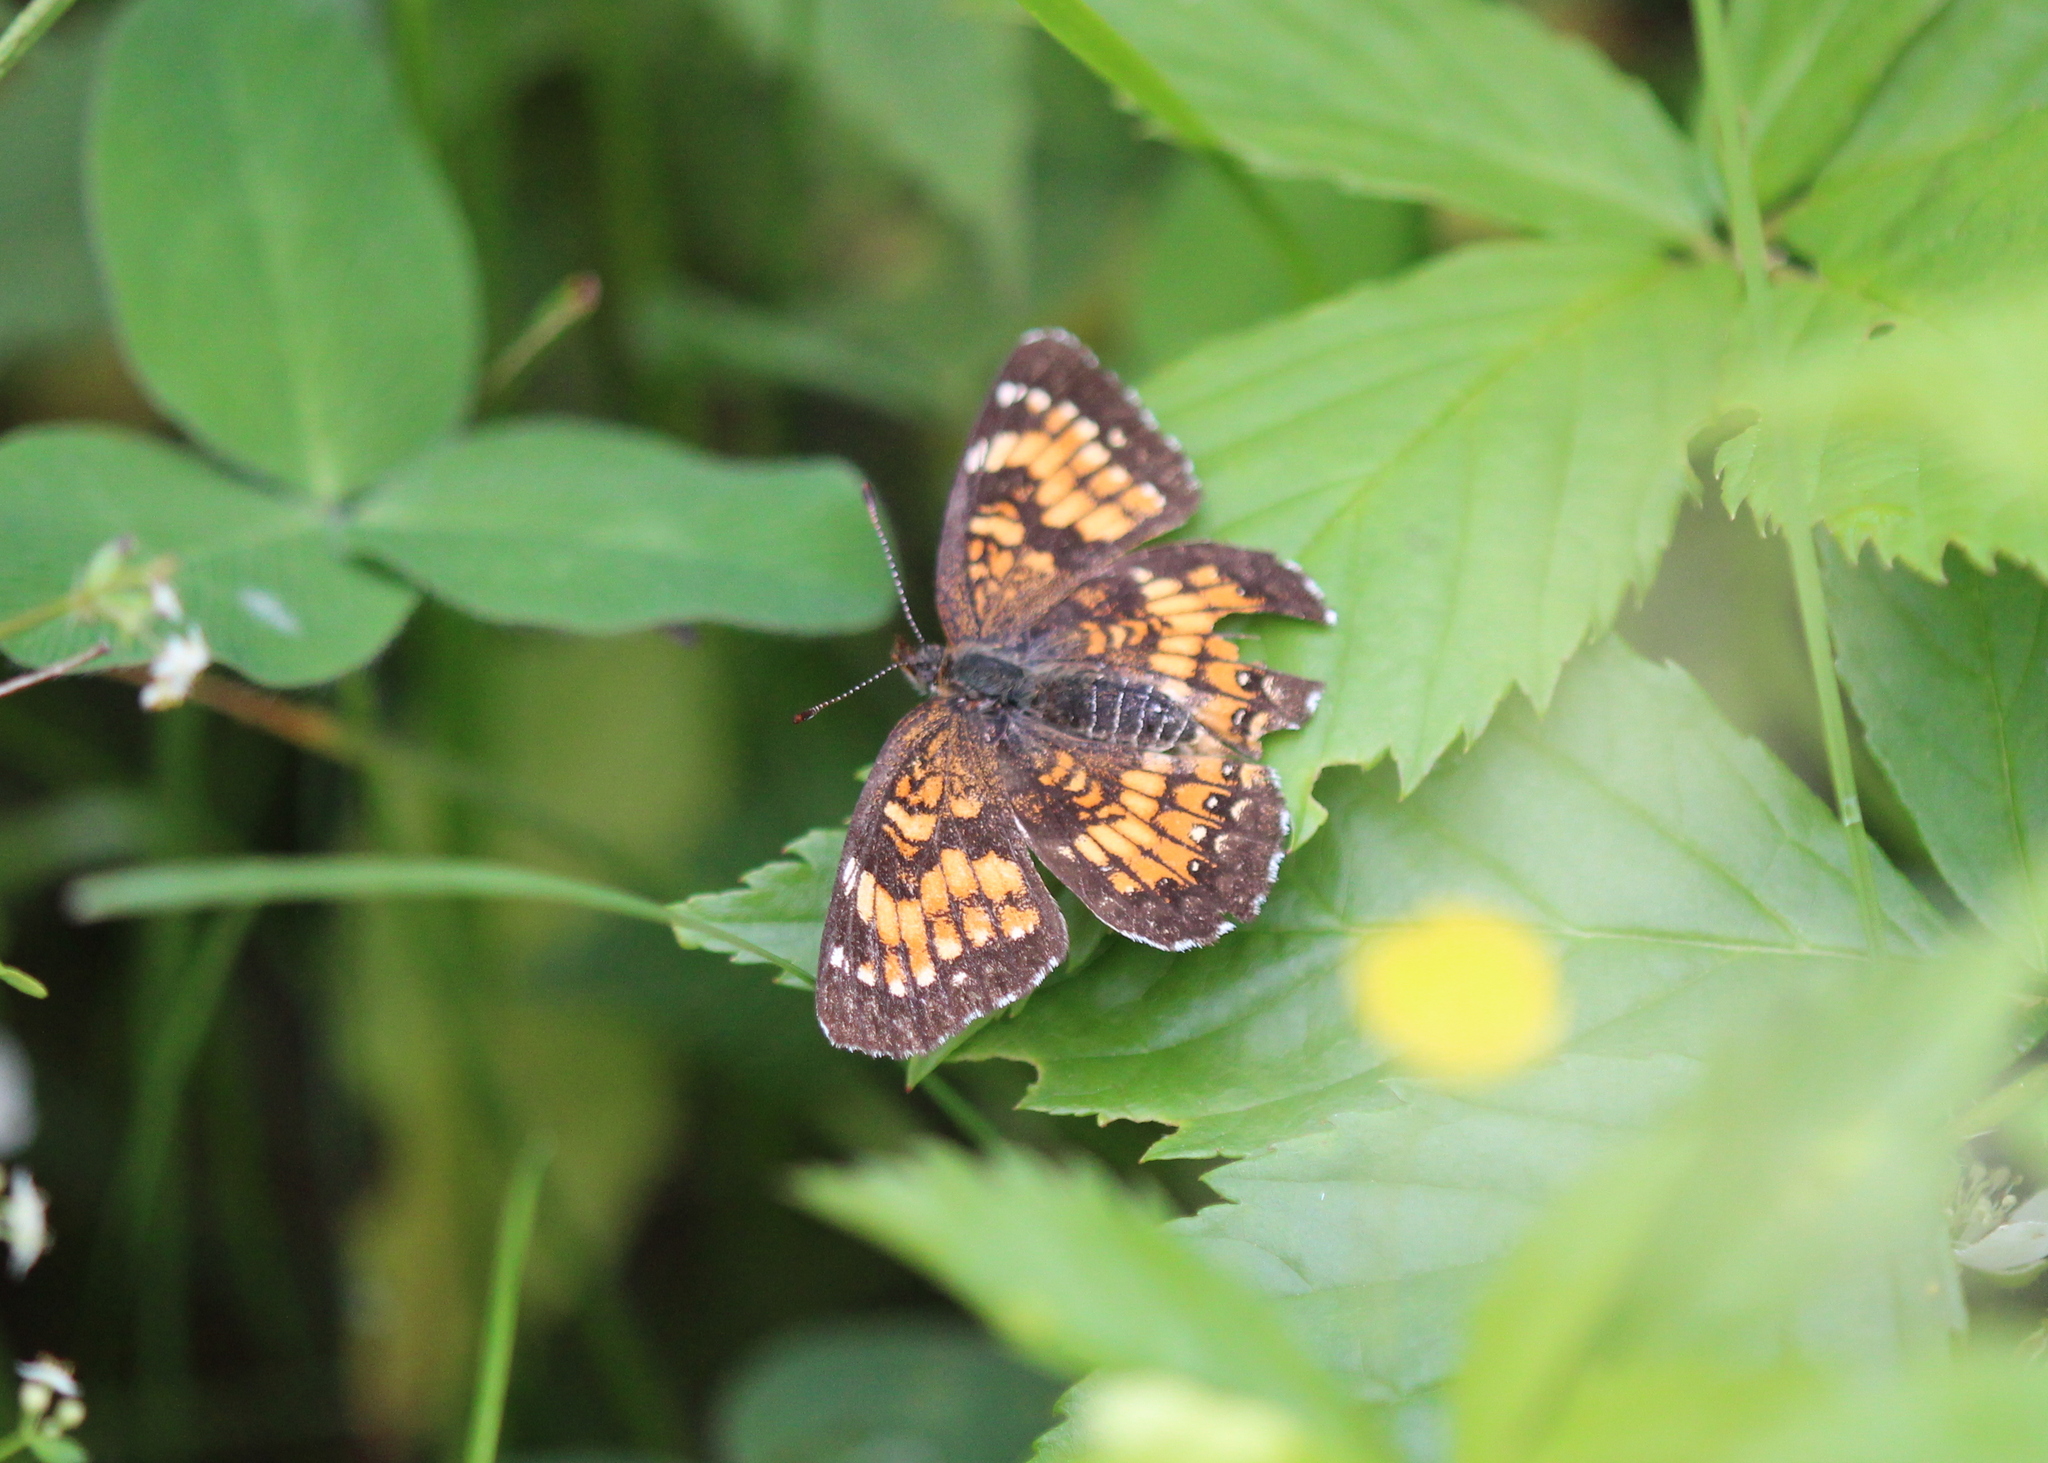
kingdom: Animalia
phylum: Arthropoda
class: Insecta
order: Lepidoptera
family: Nymphalidae
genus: Chlosyne
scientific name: Chlosyne harrisii
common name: Harris's checkerspot
